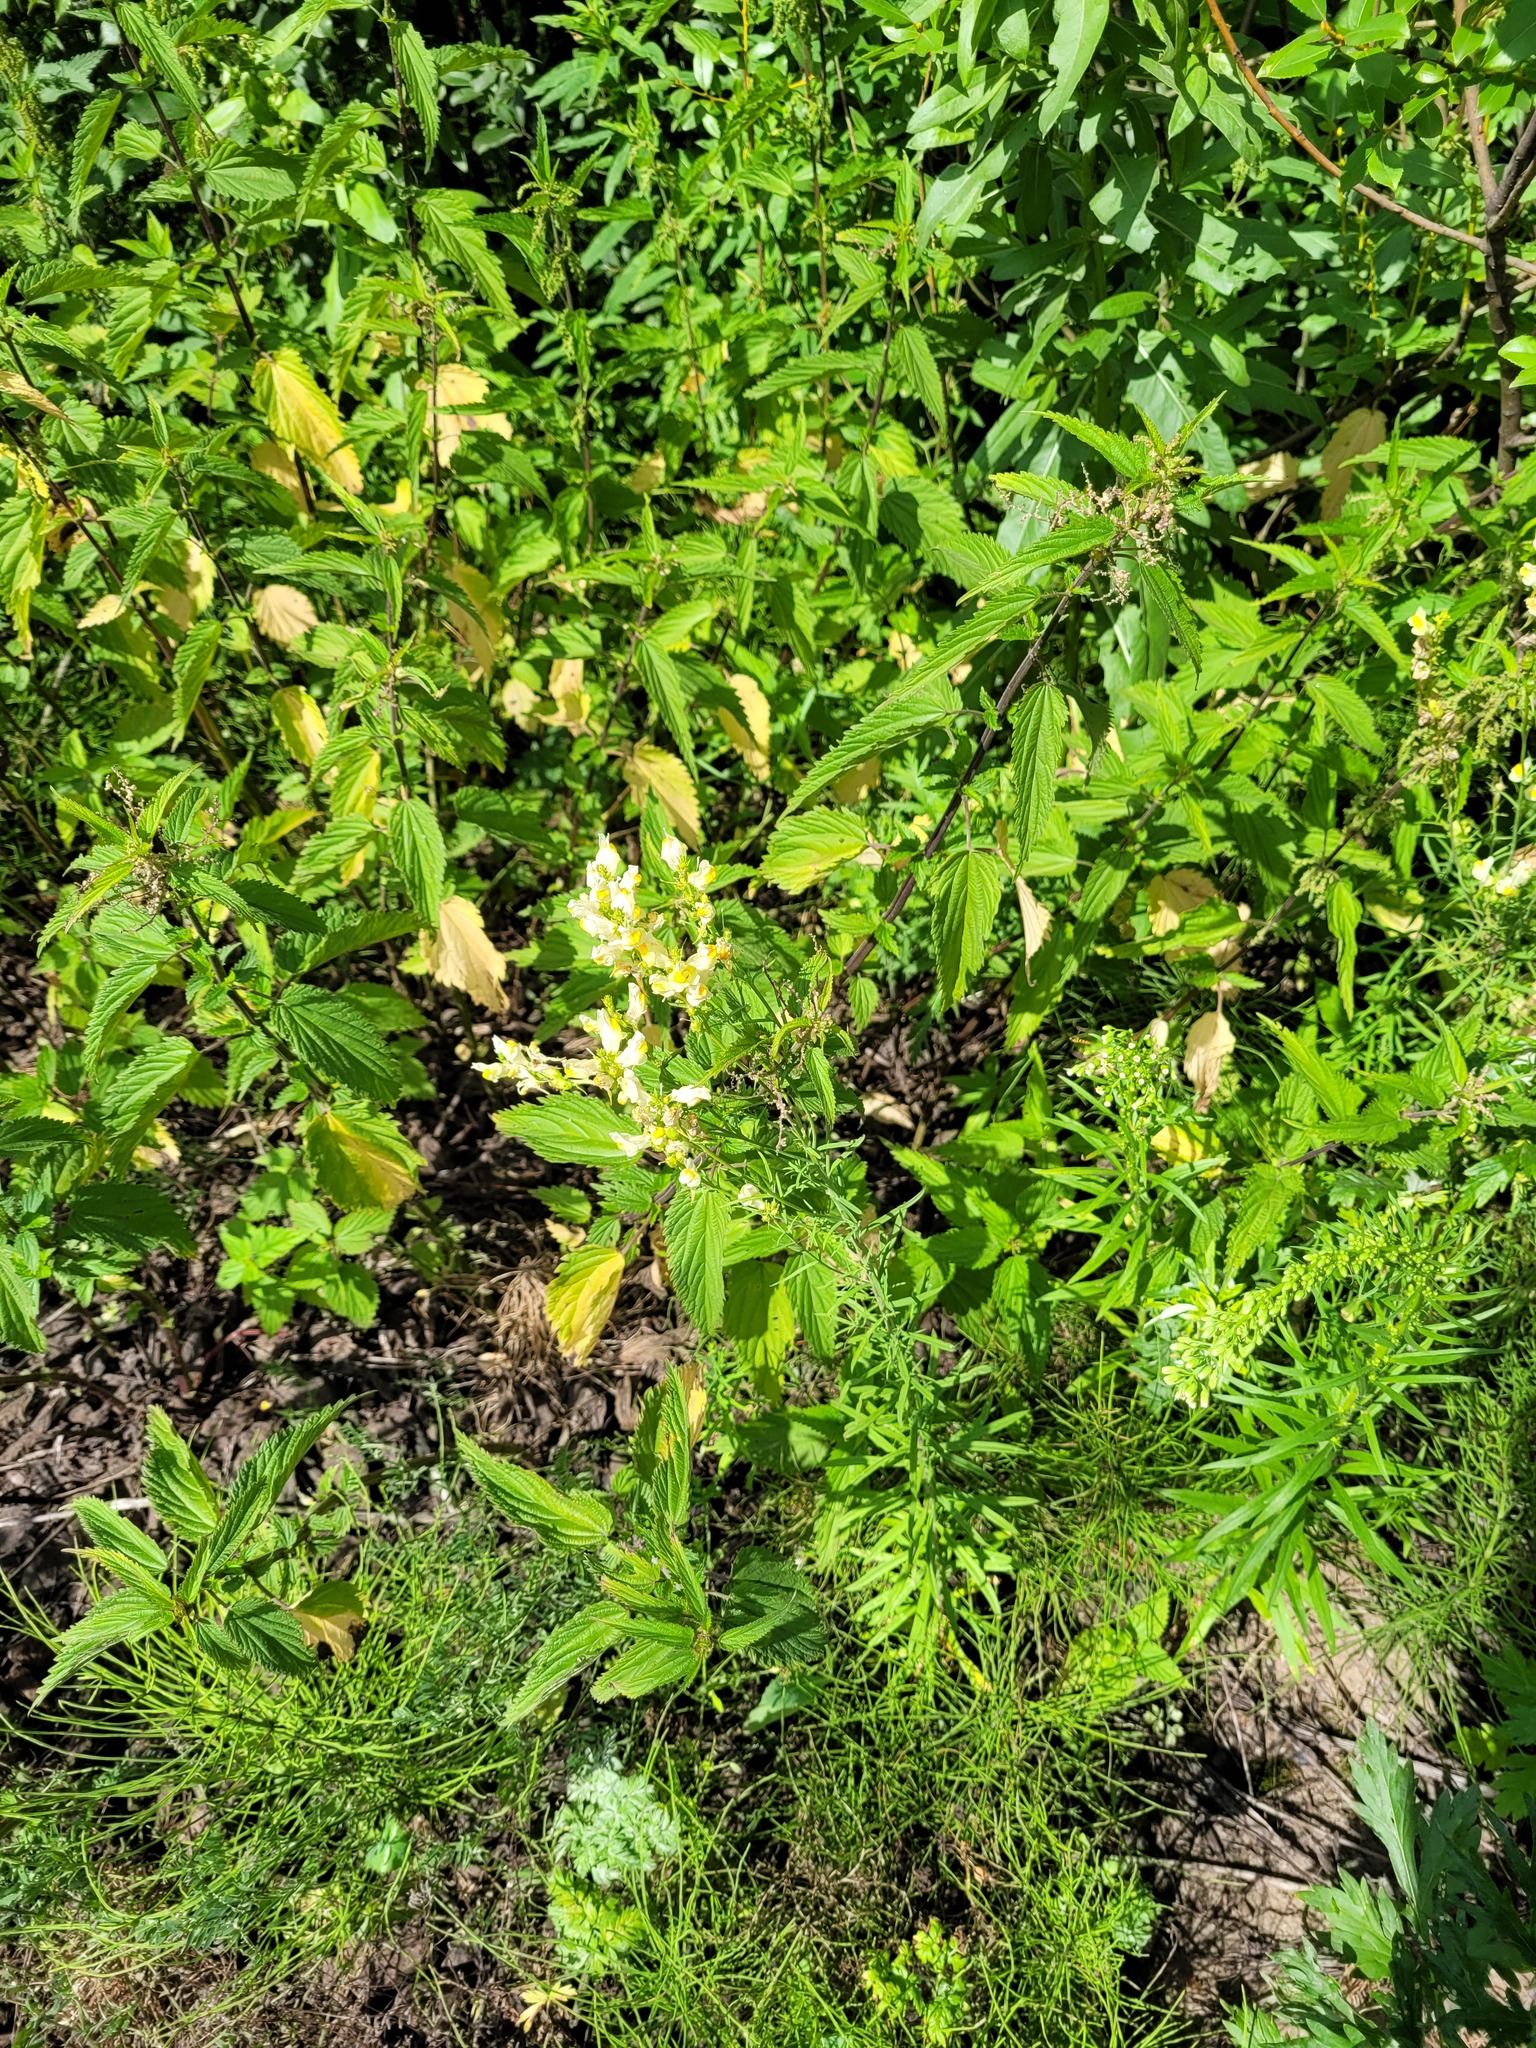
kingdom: Plantae
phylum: Tracheophyta
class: Magnoliopsida
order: Lamiales
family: Plantaginaceae
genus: Linaria
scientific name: Linaria vulgaris
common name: Butter and eggs
